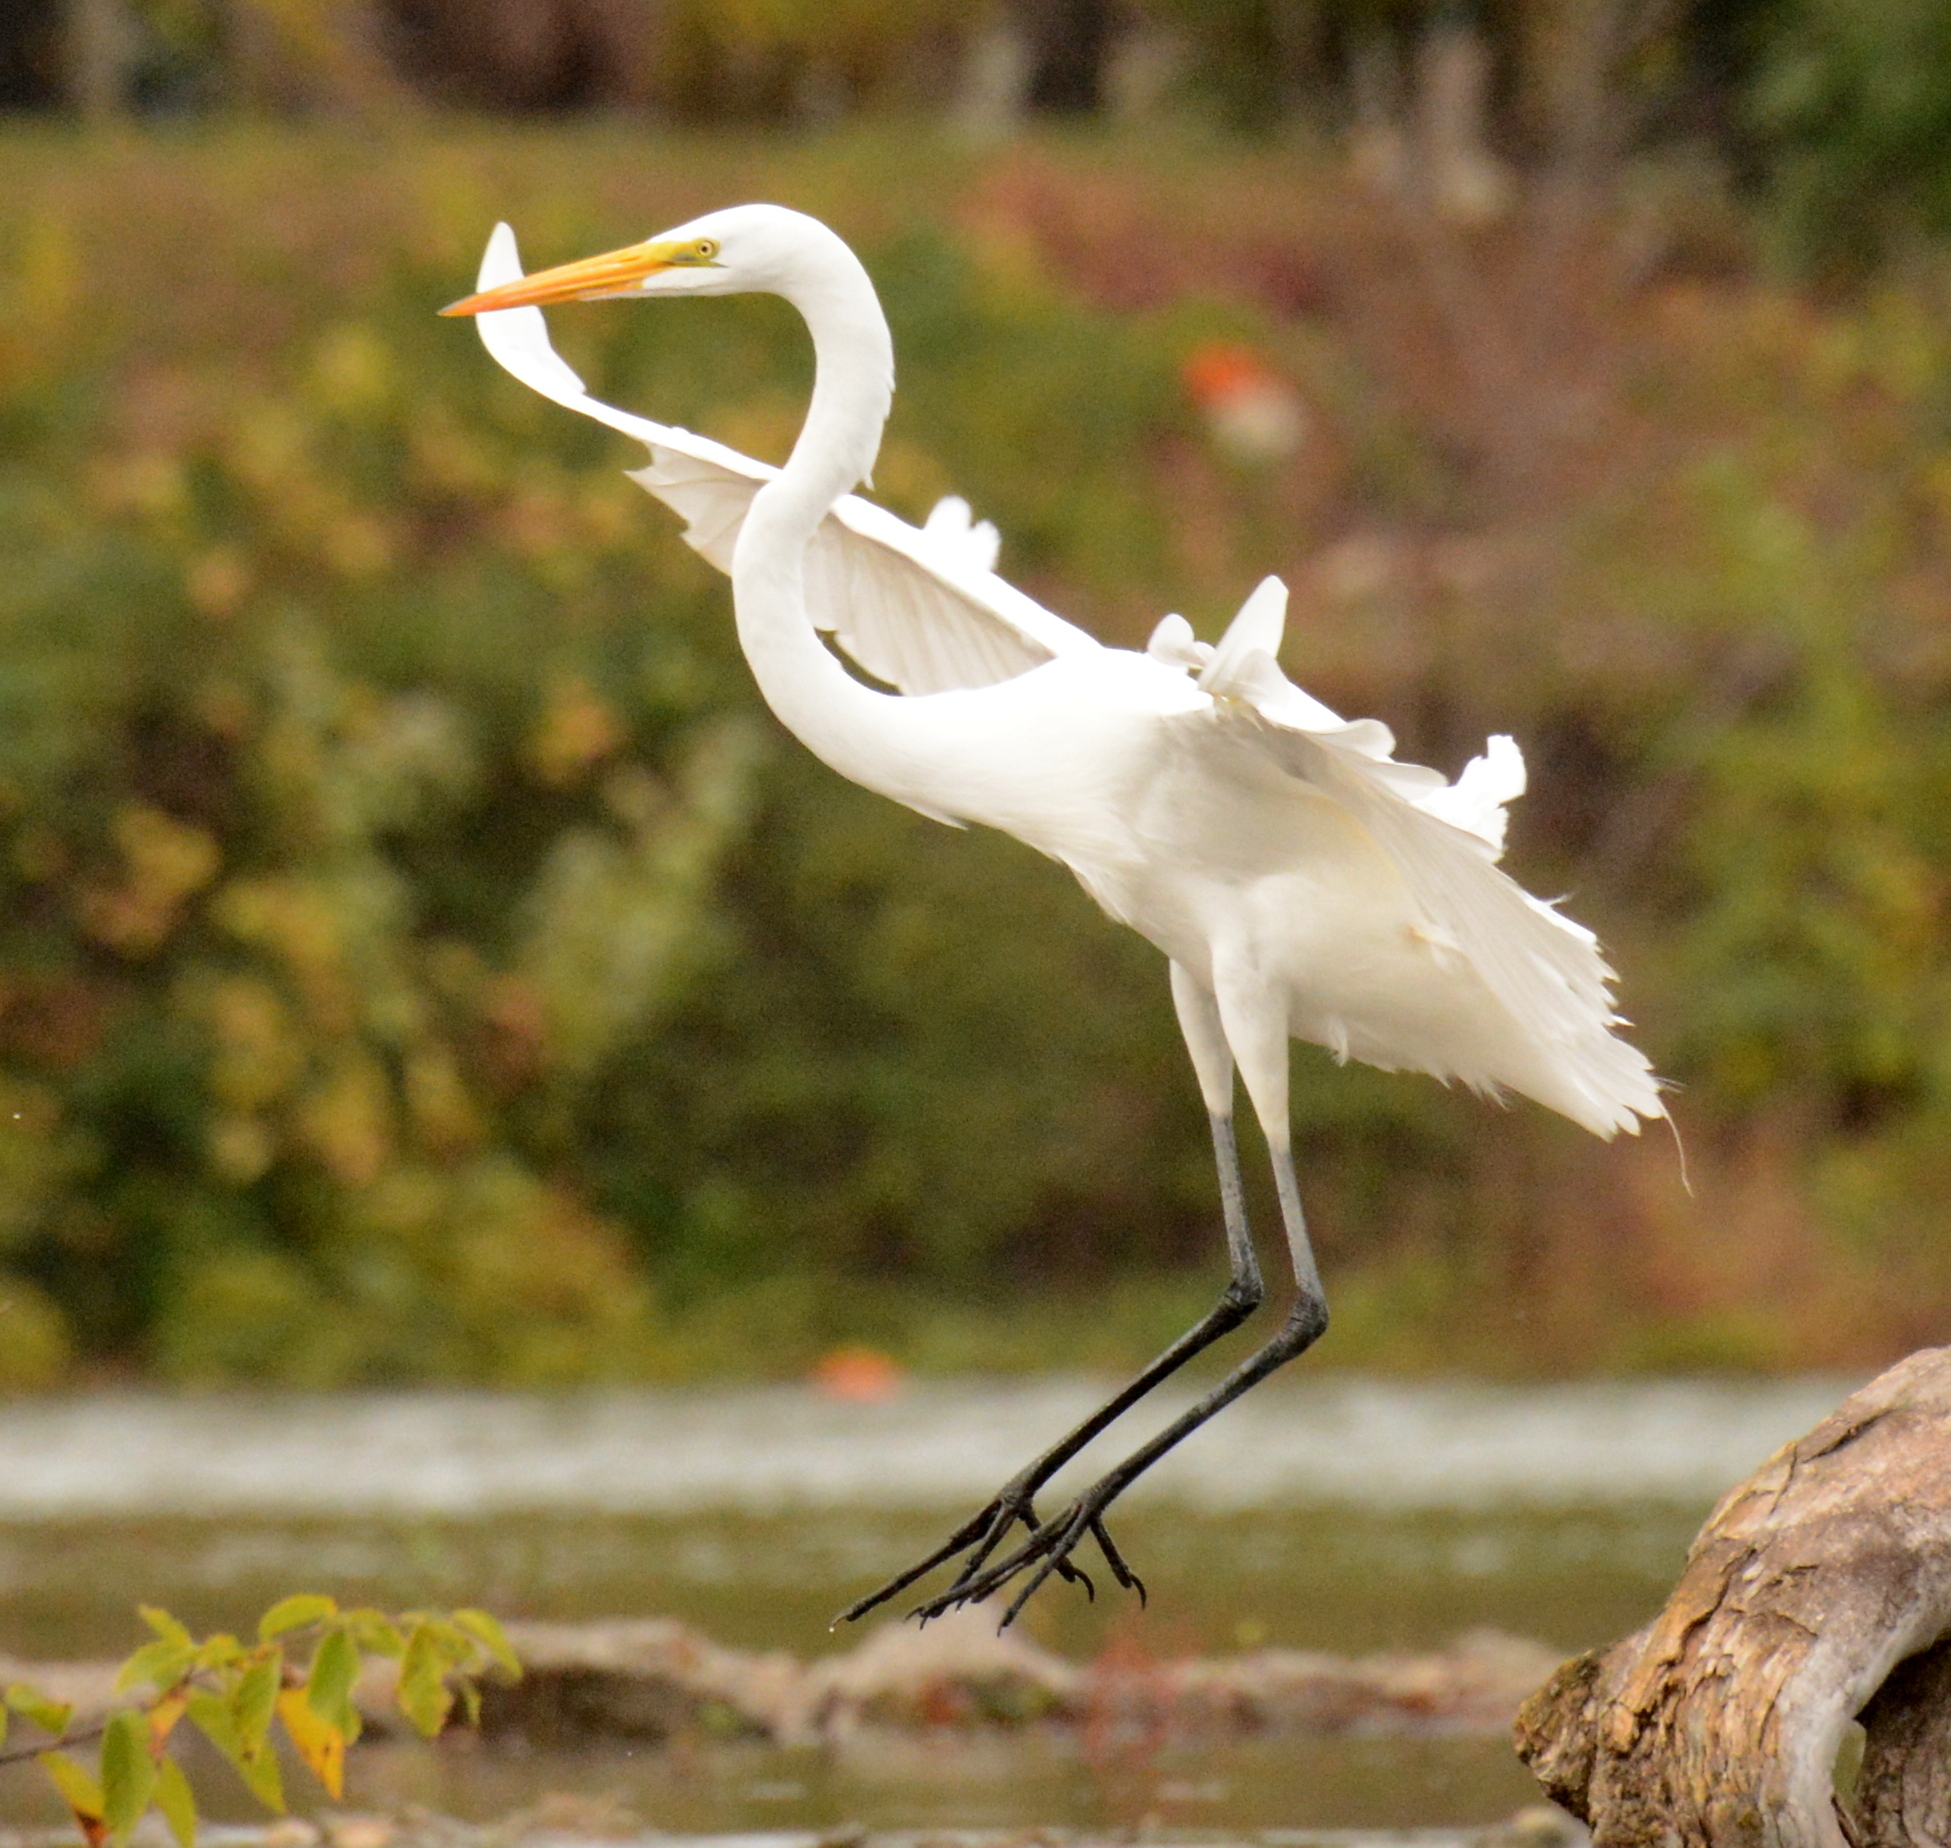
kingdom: Animalia
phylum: Chordata
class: Aves
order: Pelecaniformes
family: Ardeidae
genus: Ardea
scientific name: Ardea alba
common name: Great egret
